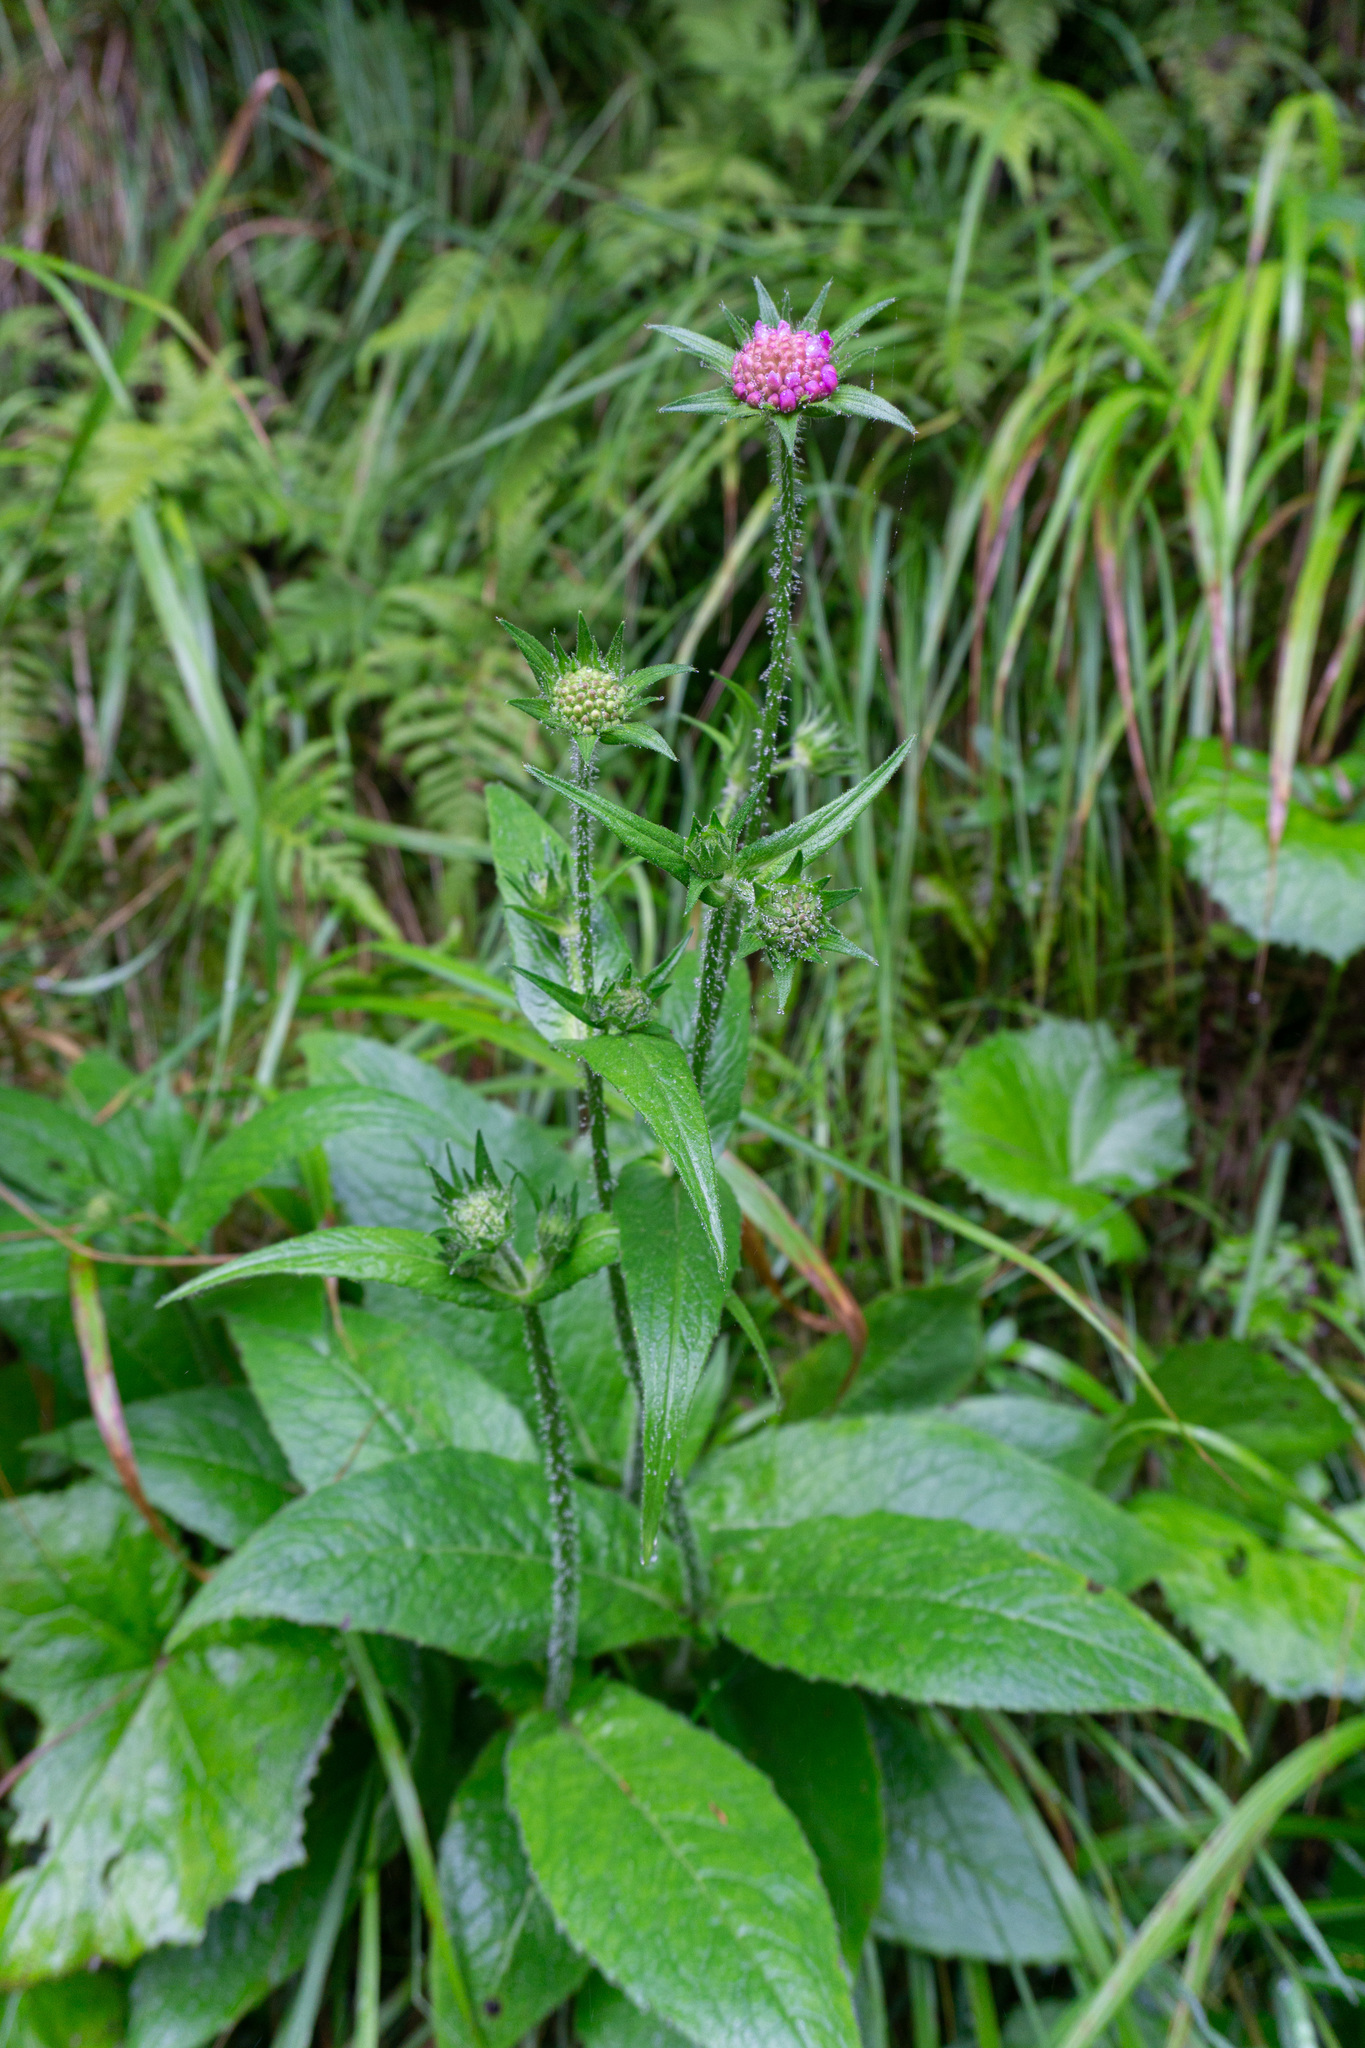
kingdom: Plantae
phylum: Tracheophyta
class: Magnoliopsida
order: Dipsacales
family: Caprifoliaceae
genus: Knautia
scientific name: Knautia dipsacifolia
